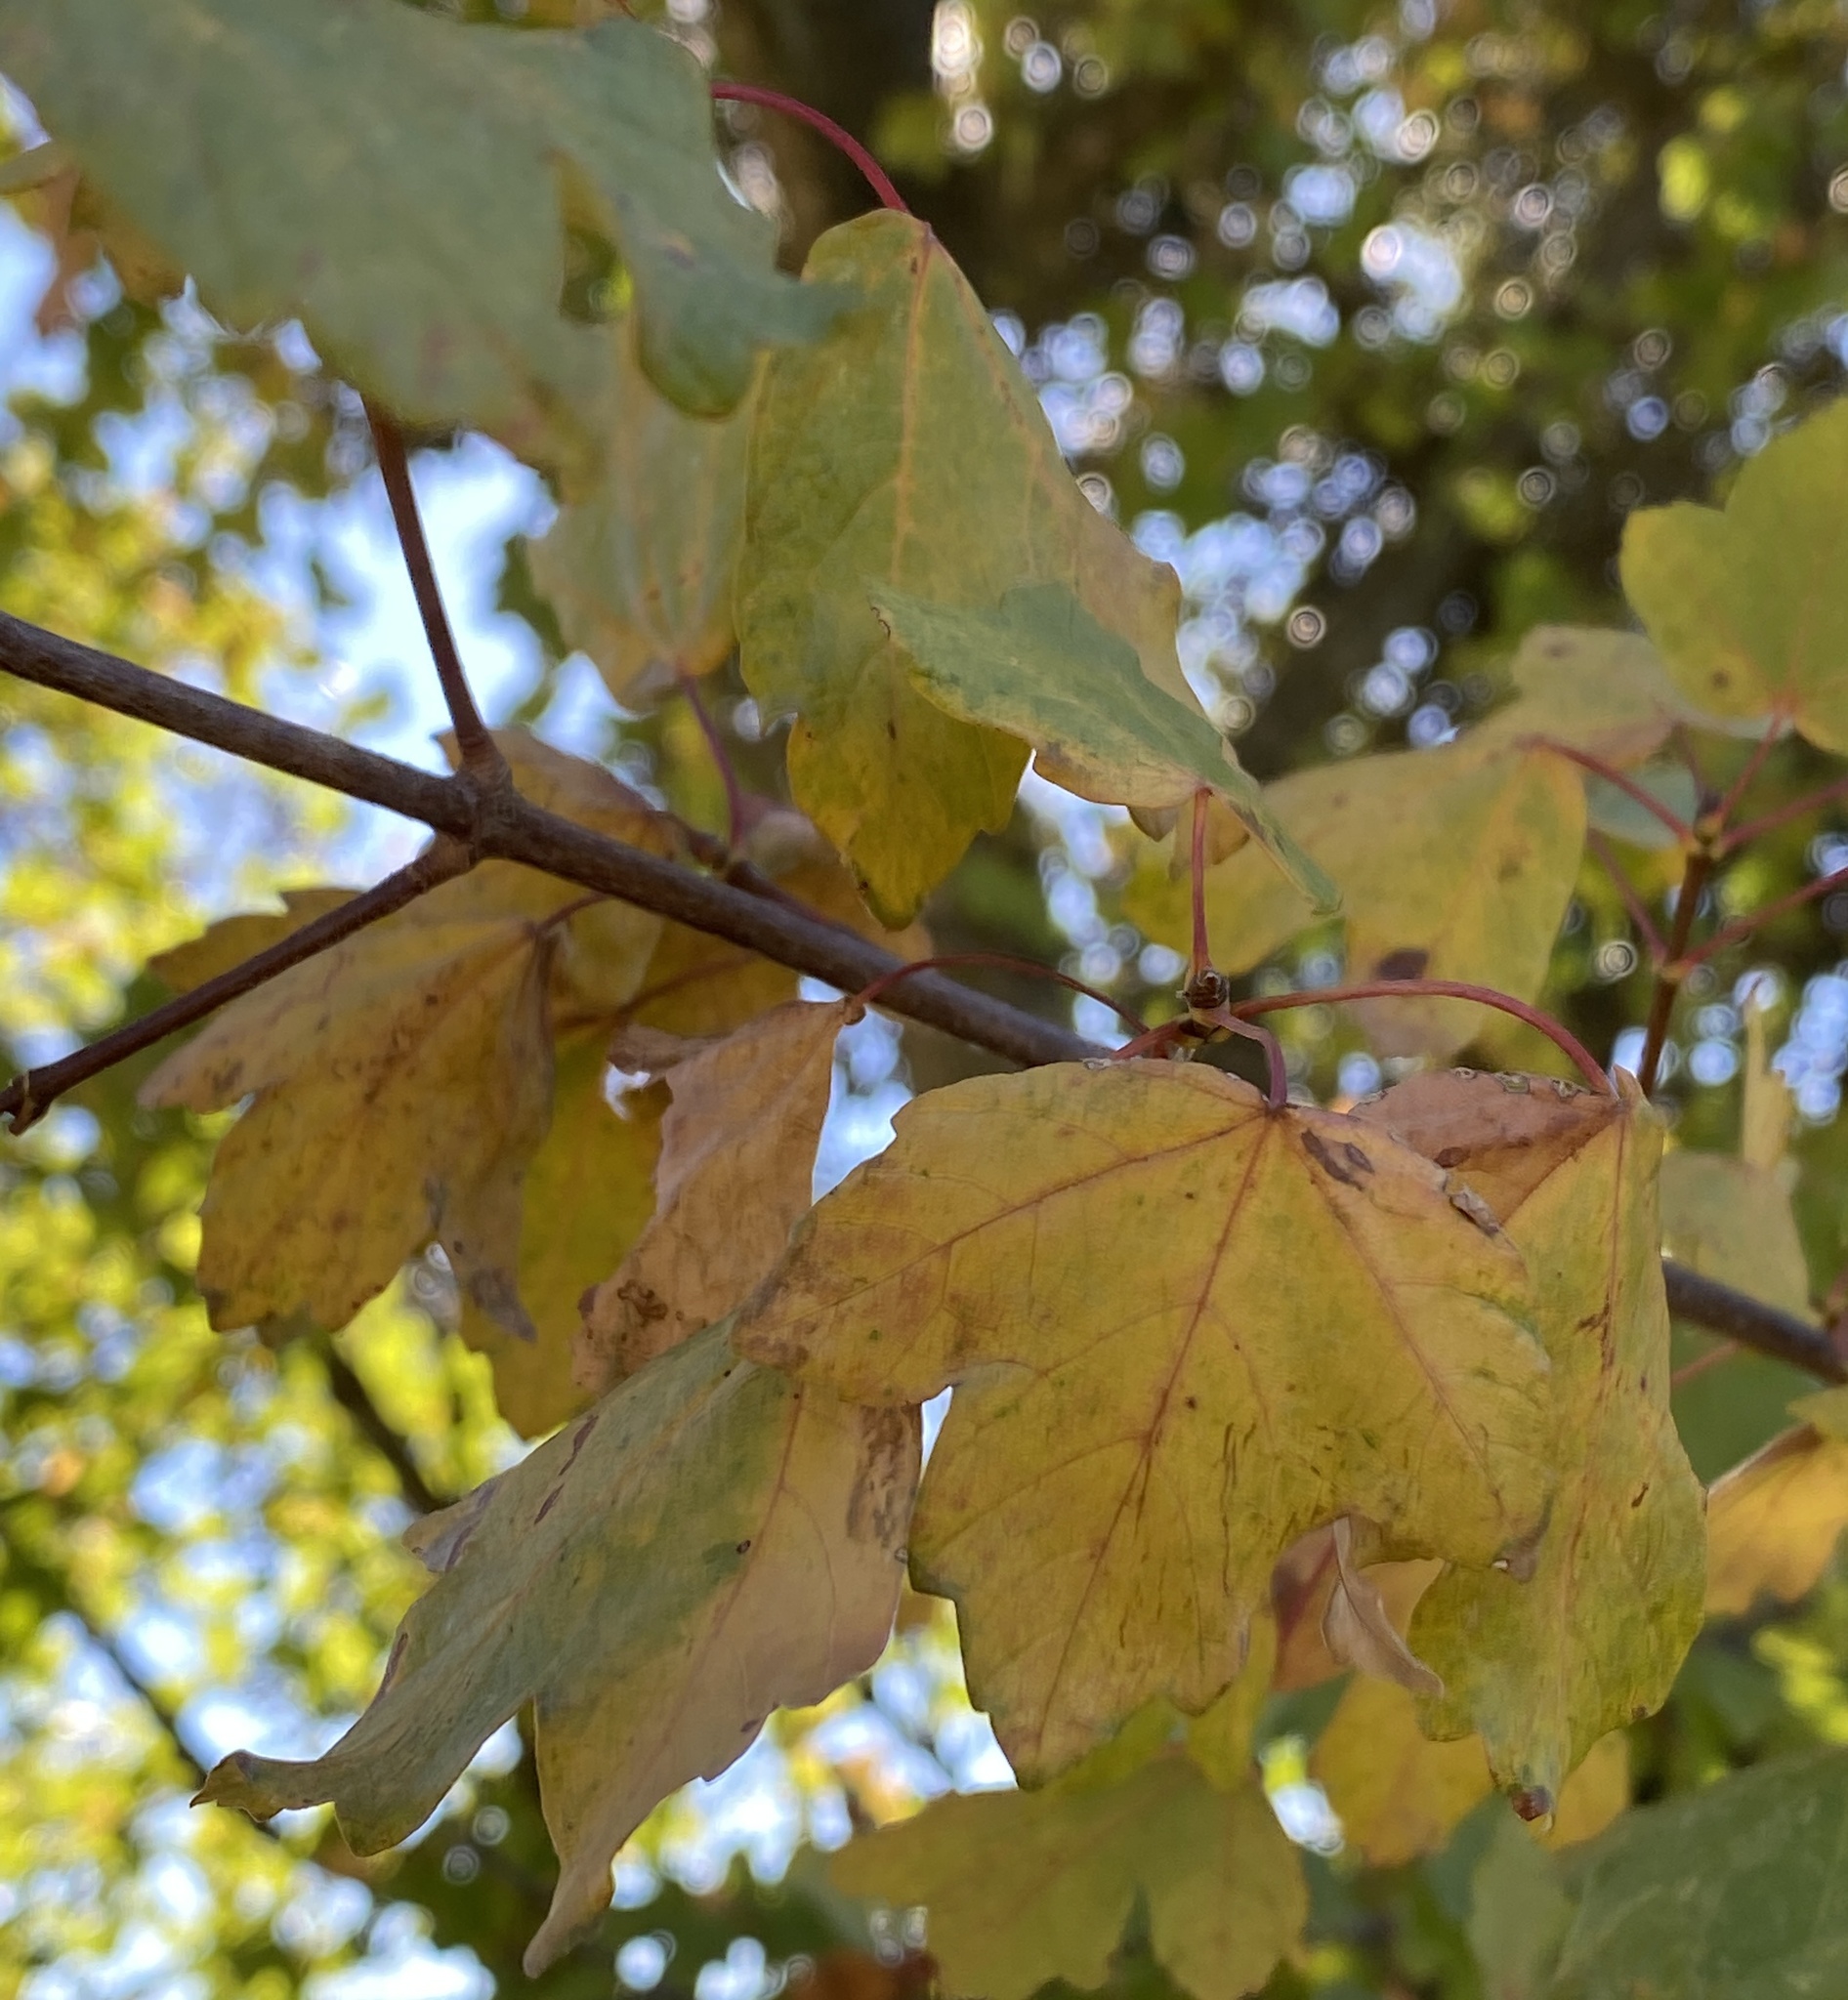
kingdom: Plantae
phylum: Tracheophyta
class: Magnoliopsida
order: Sapindales
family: Sapindaceae
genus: Acer
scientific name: Acer campestre
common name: Field maple
